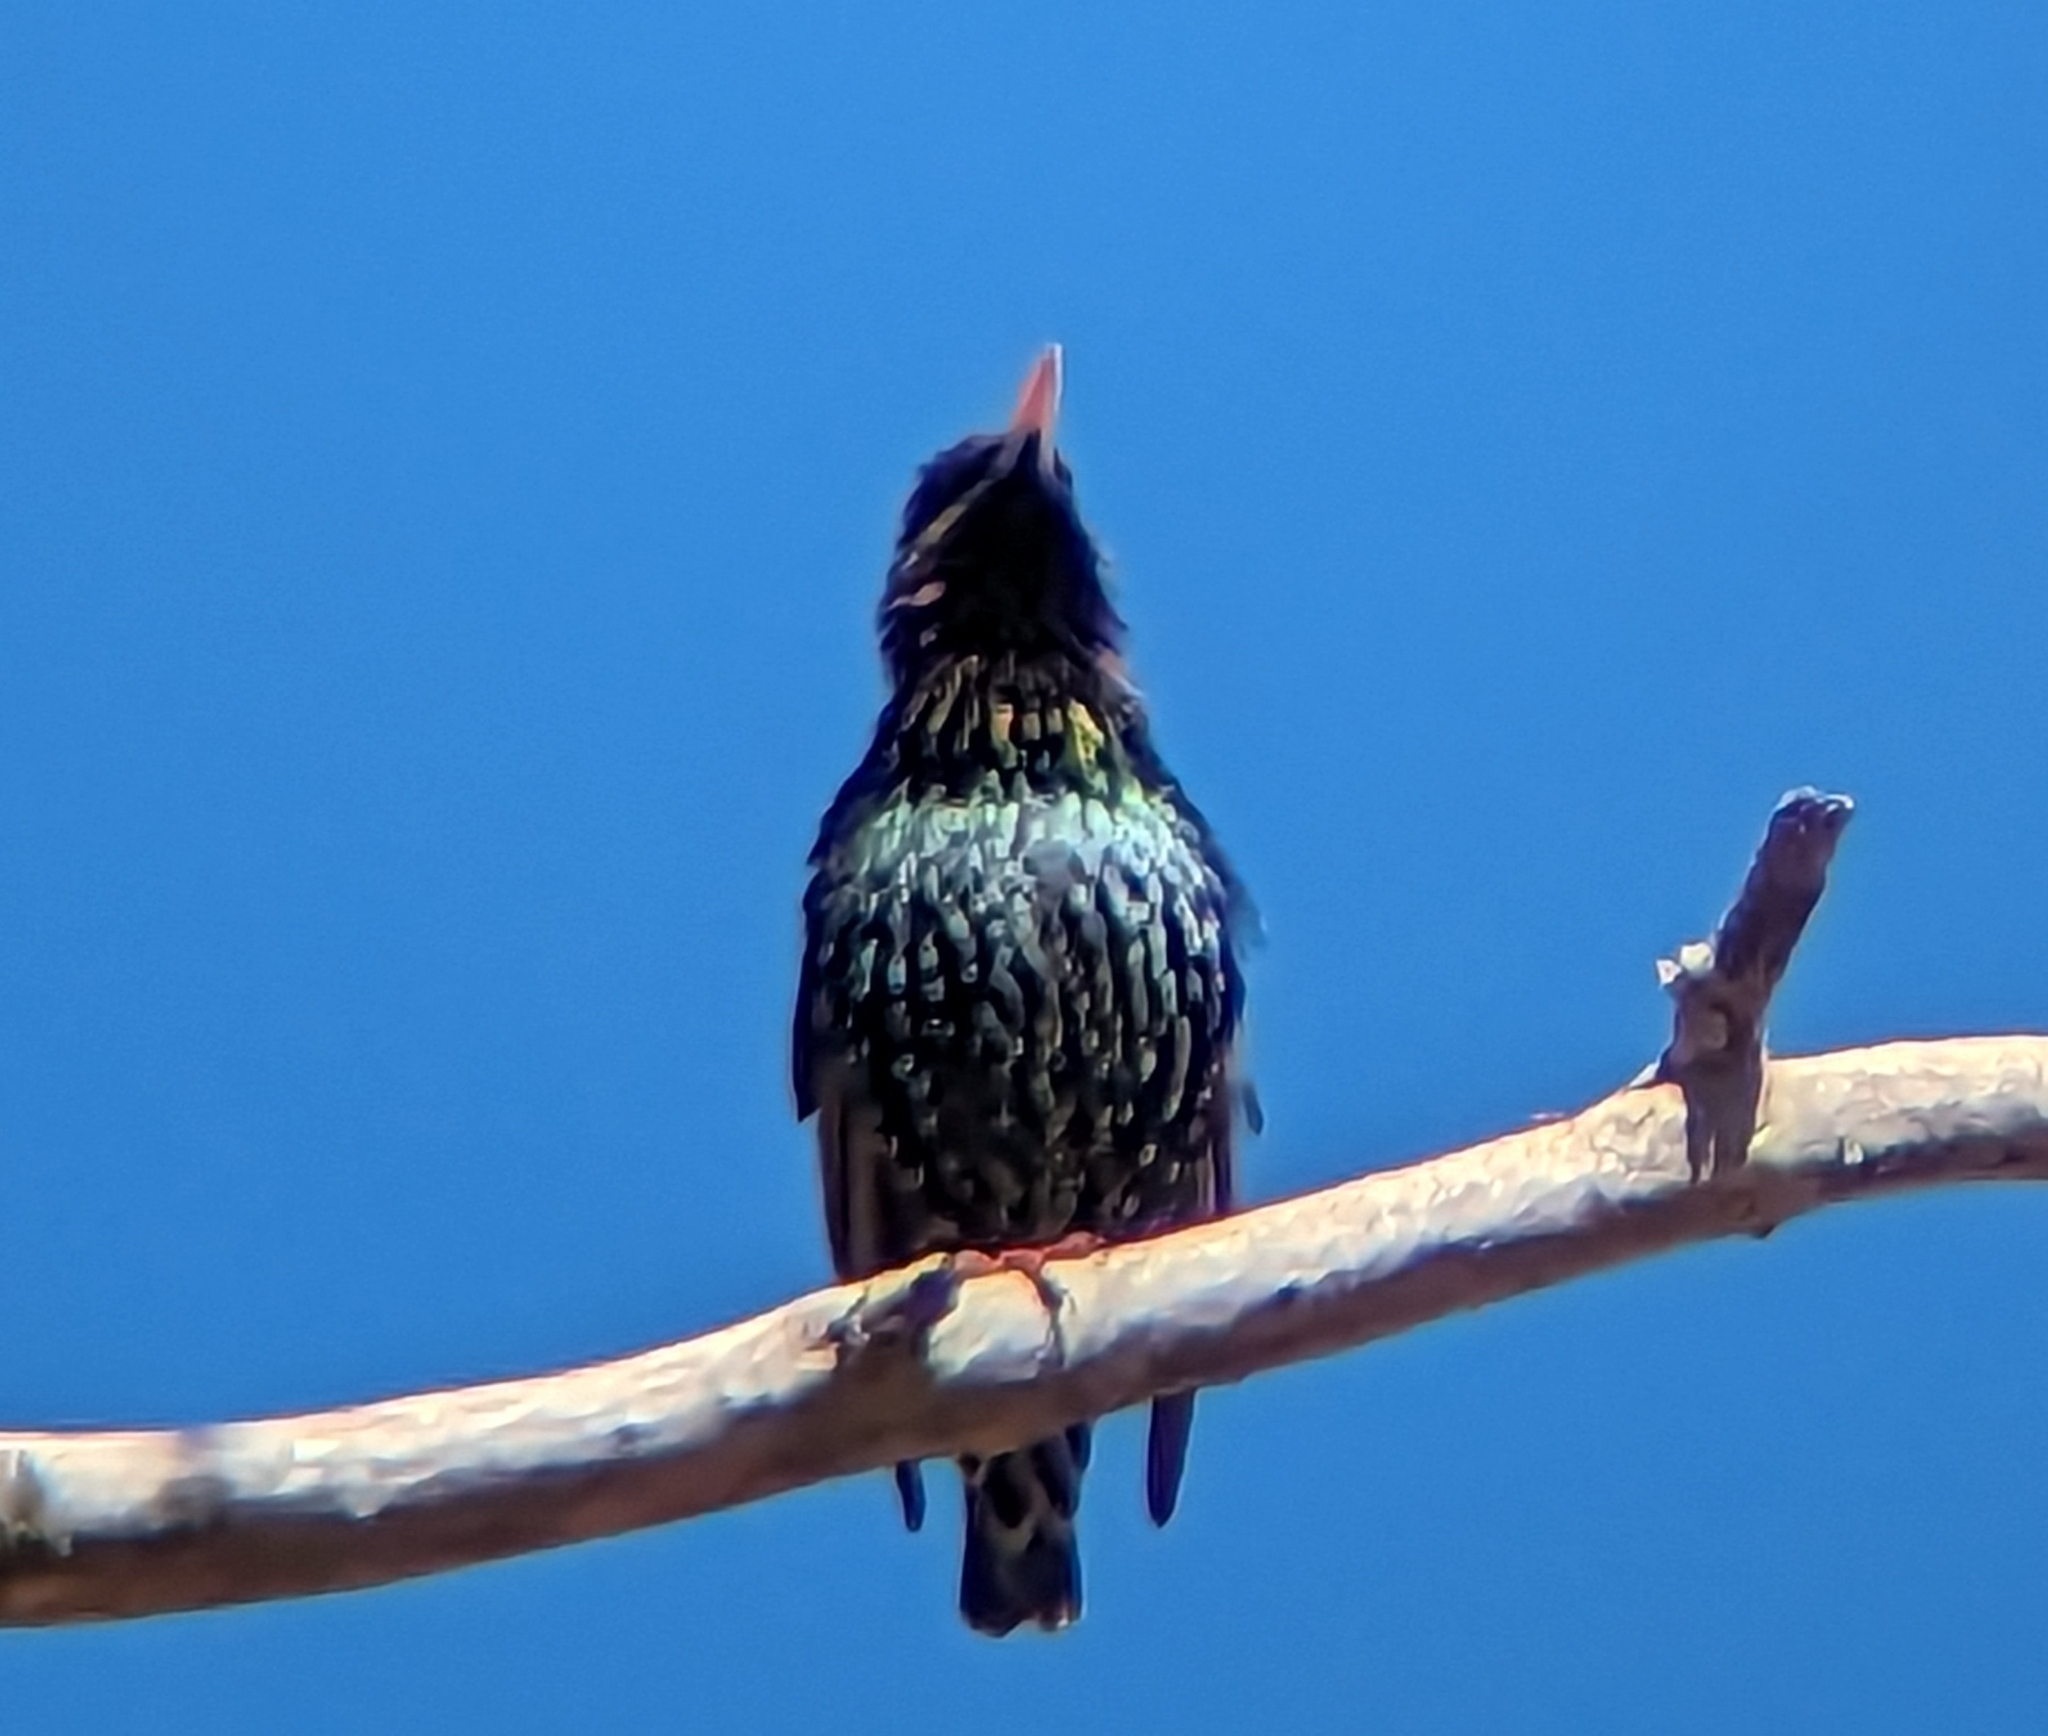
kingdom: Animalia
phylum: Chordata
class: Aves
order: Passeriformes
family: Sturnidae
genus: Sturnus
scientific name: Sturnus vulgaris
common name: Common starling
